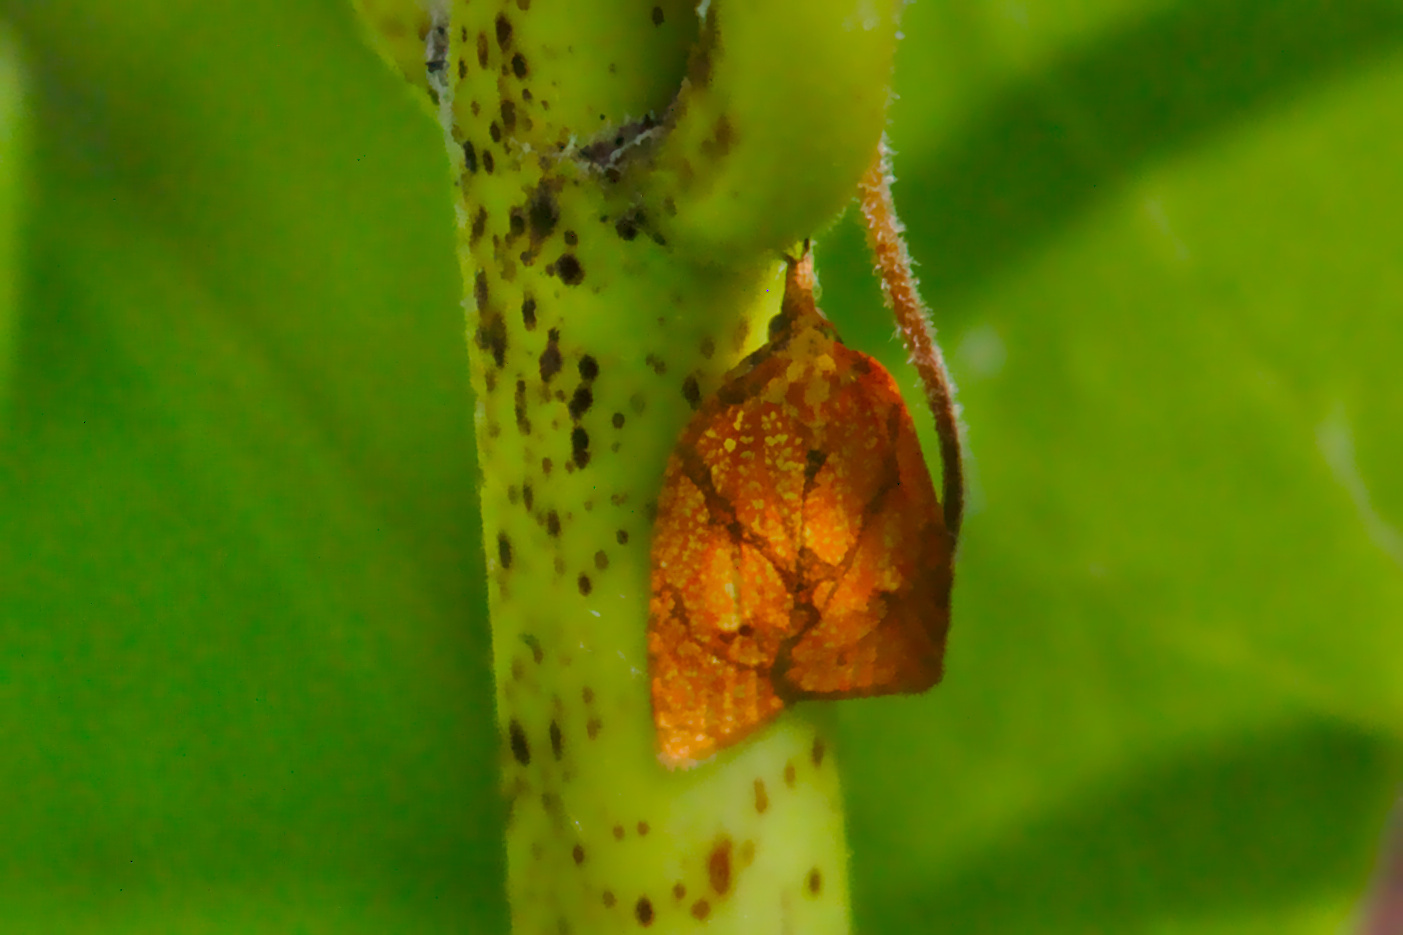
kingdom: Animalia
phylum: Arthropoda
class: Insecta
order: Lepidoptera
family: Tortricidae
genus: Cenopis
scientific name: Cenopis reticulatana
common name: Reticulated fruitworm moth
